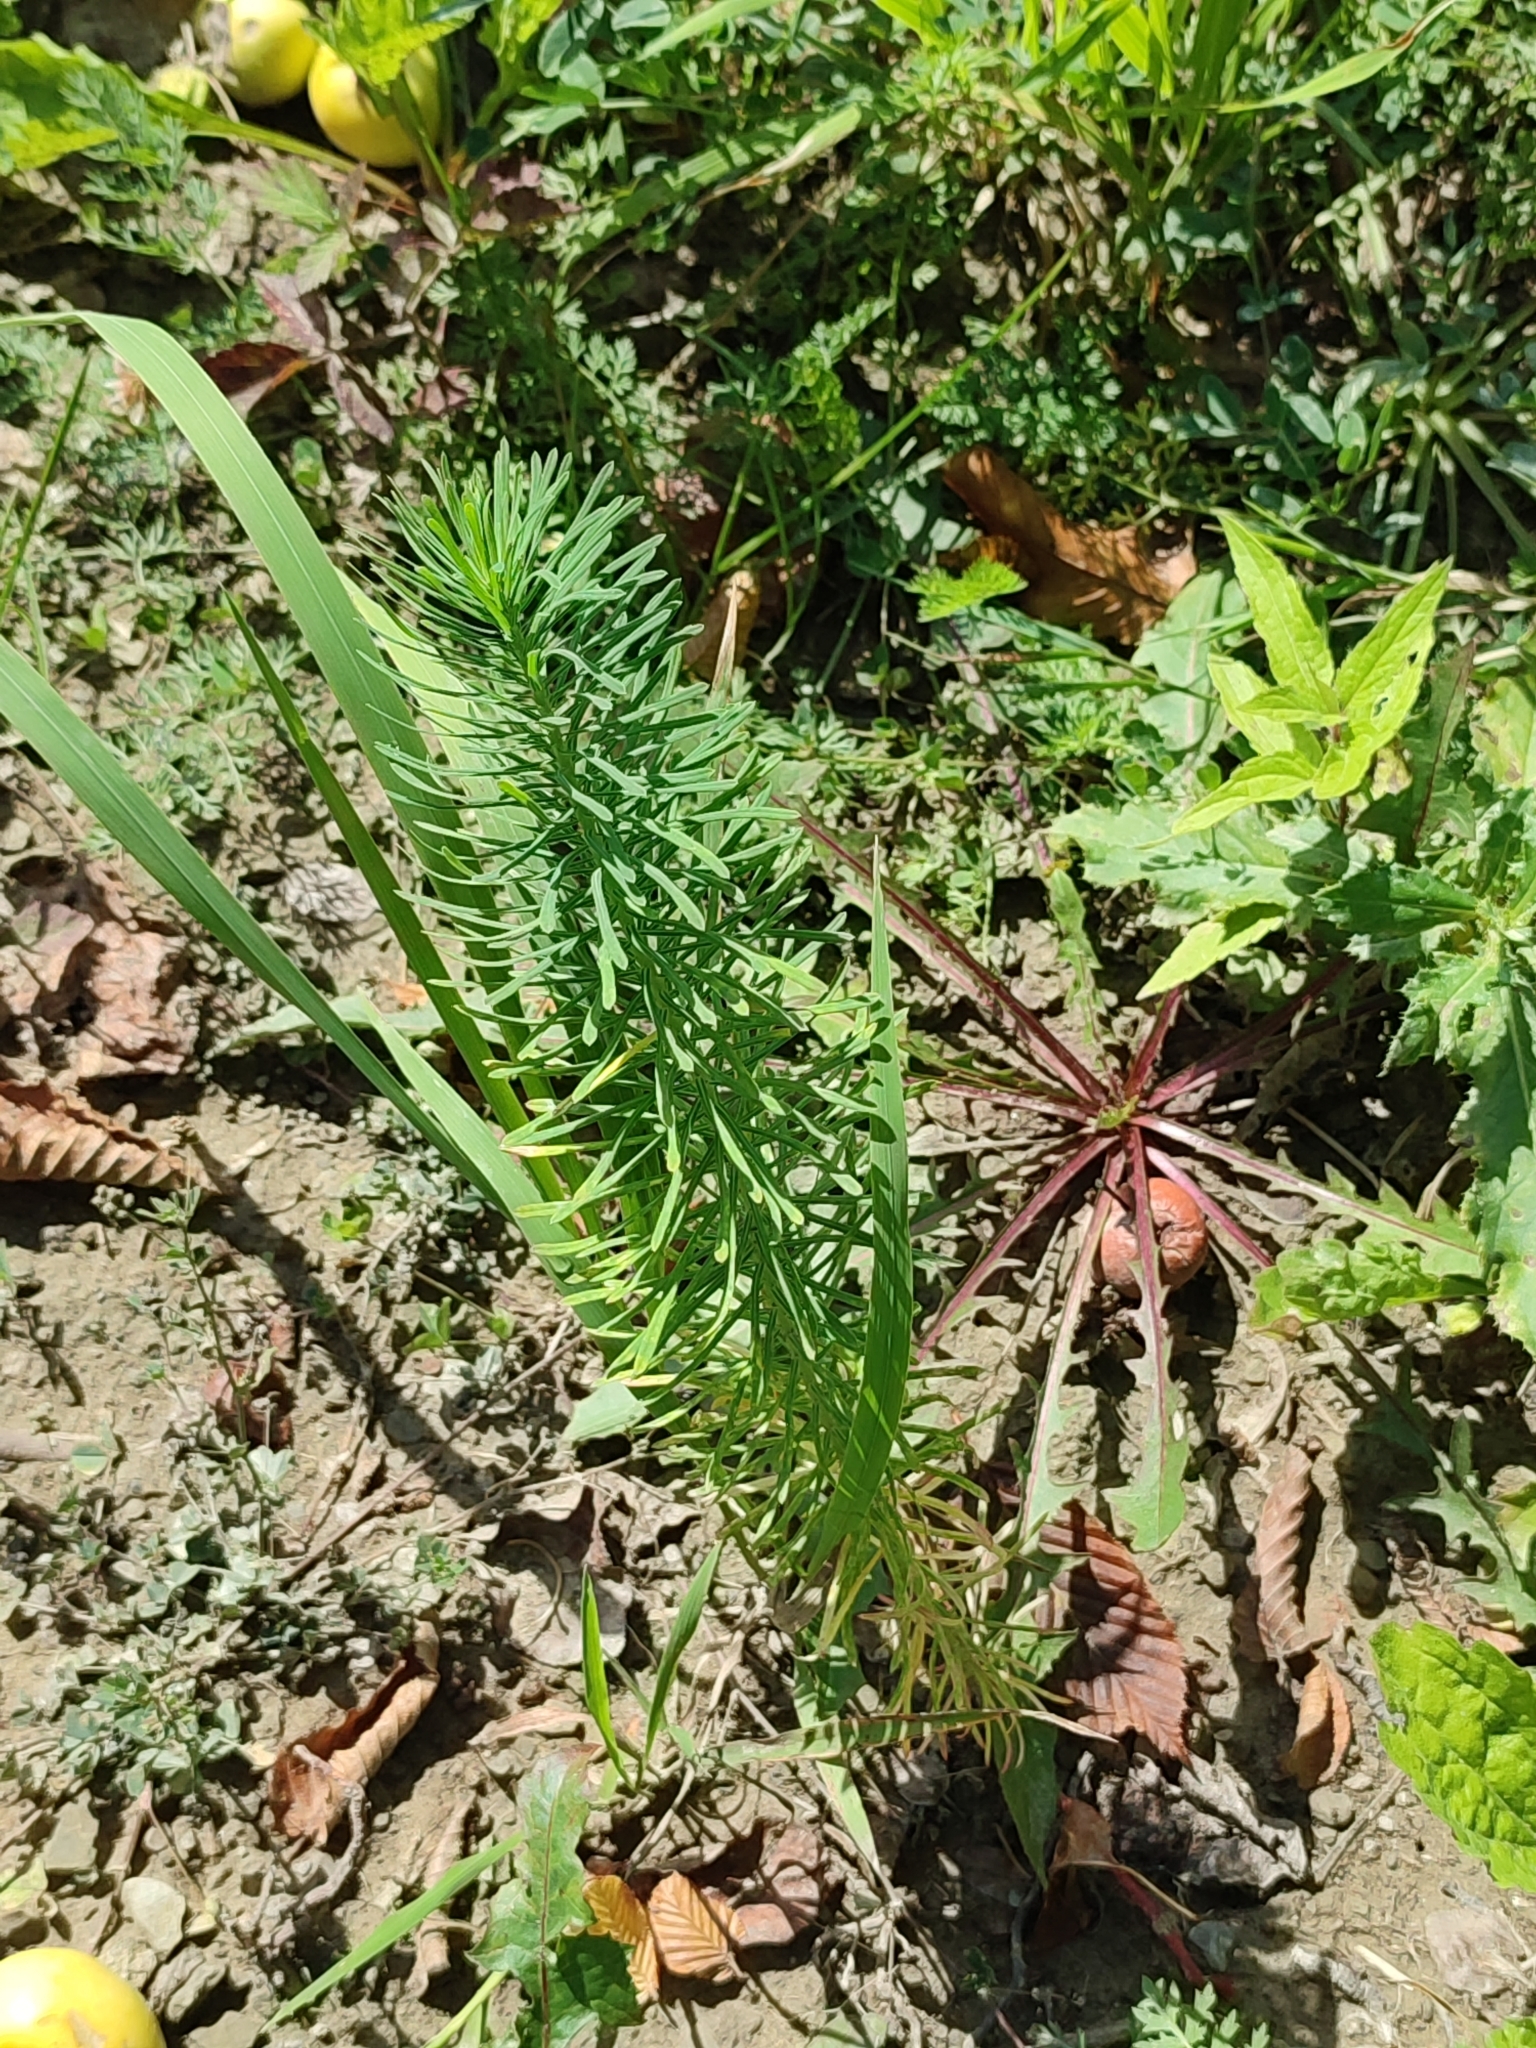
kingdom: Plantae
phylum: Tracheophyta
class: Magnoliopsida
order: Malpighiales
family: Euphorbiaceae
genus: Euphorbia
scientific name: Euphorbia cyparissias
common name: Cypress spurge
